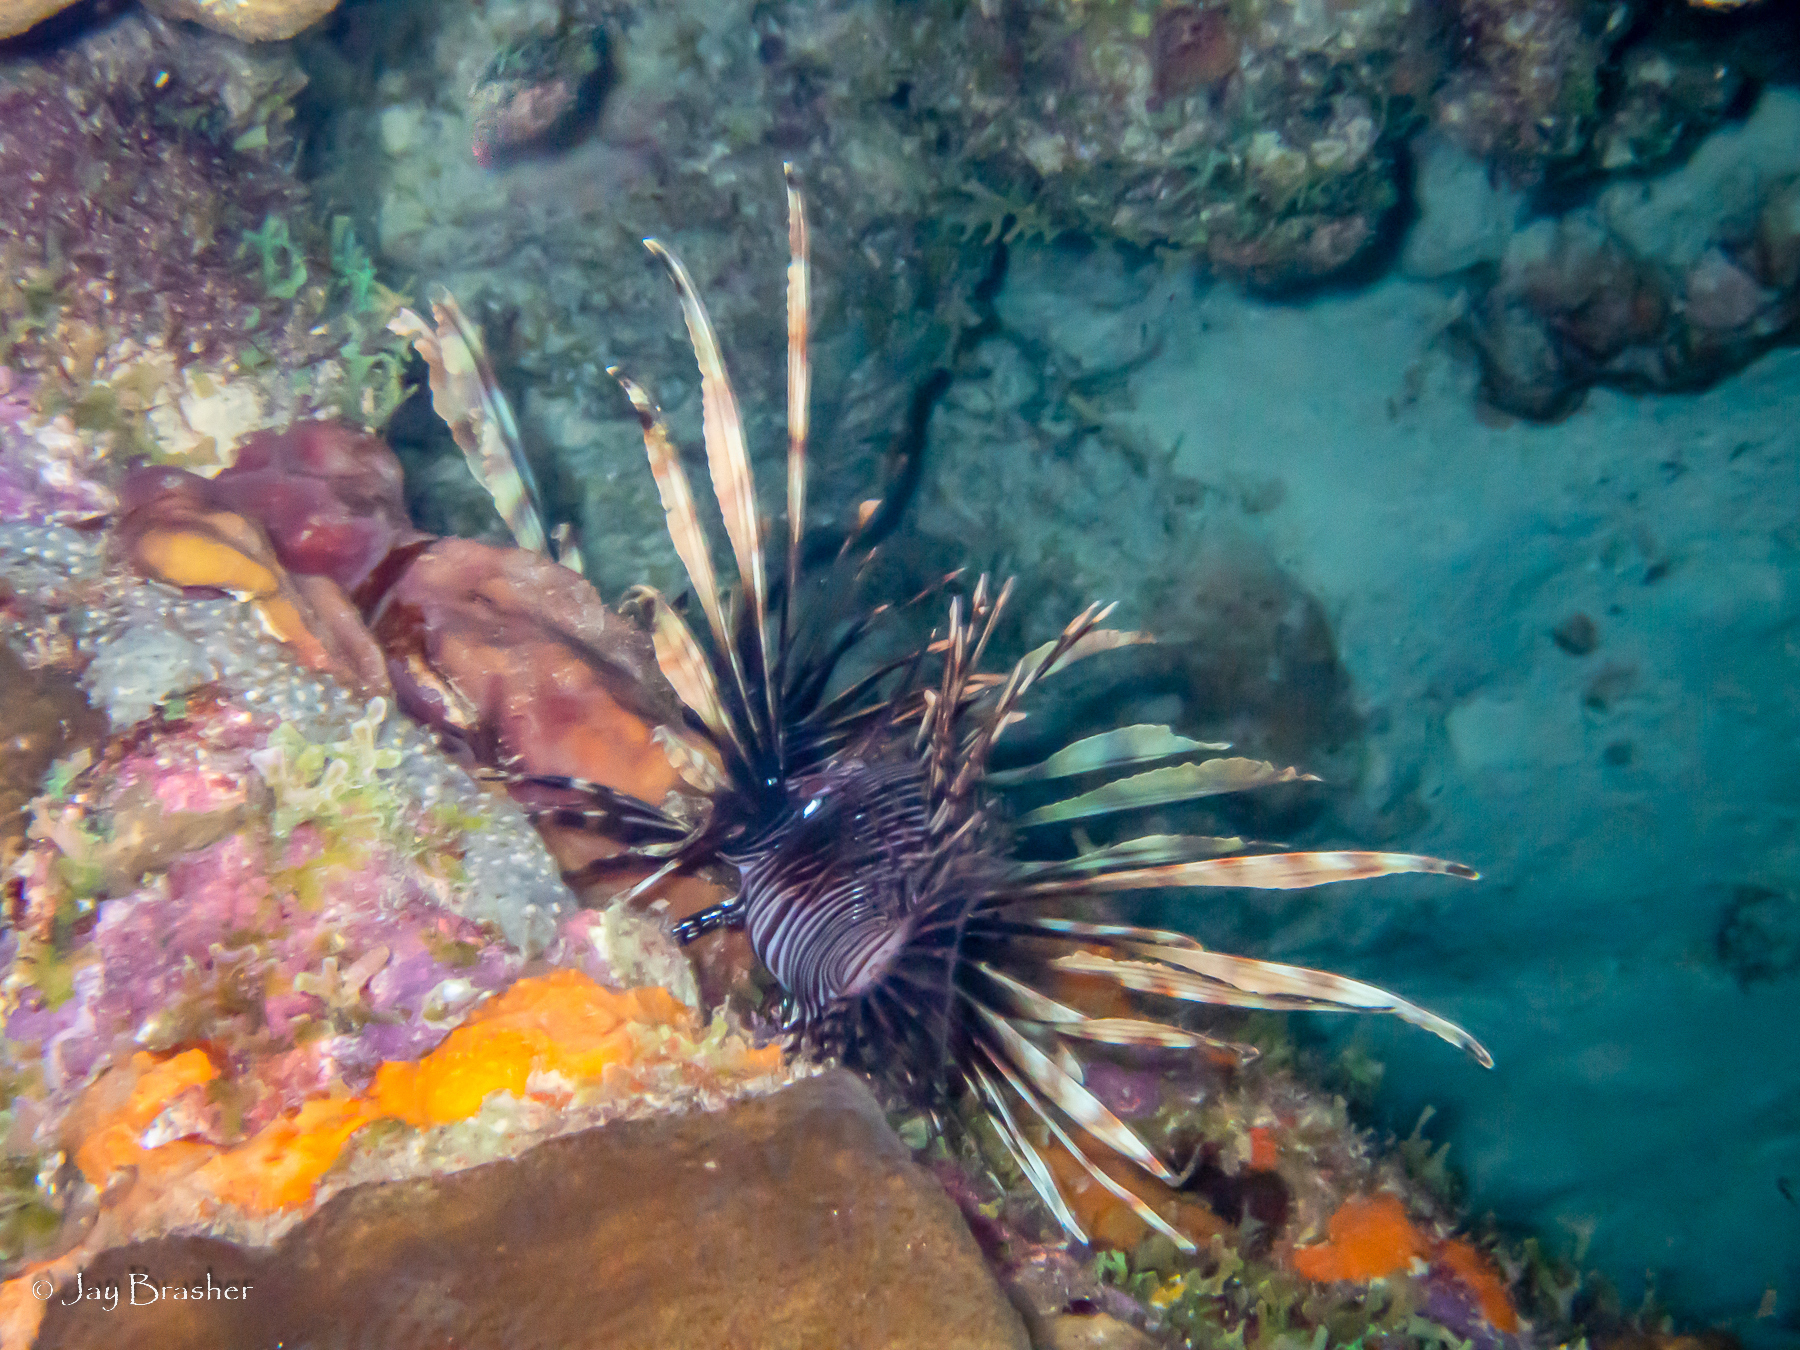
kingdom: Animalia
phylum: Chordata
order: Scorpaeniformes
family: Scorpaenidae
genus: Pterois
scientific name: Pterois volitans
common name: Lionfish
